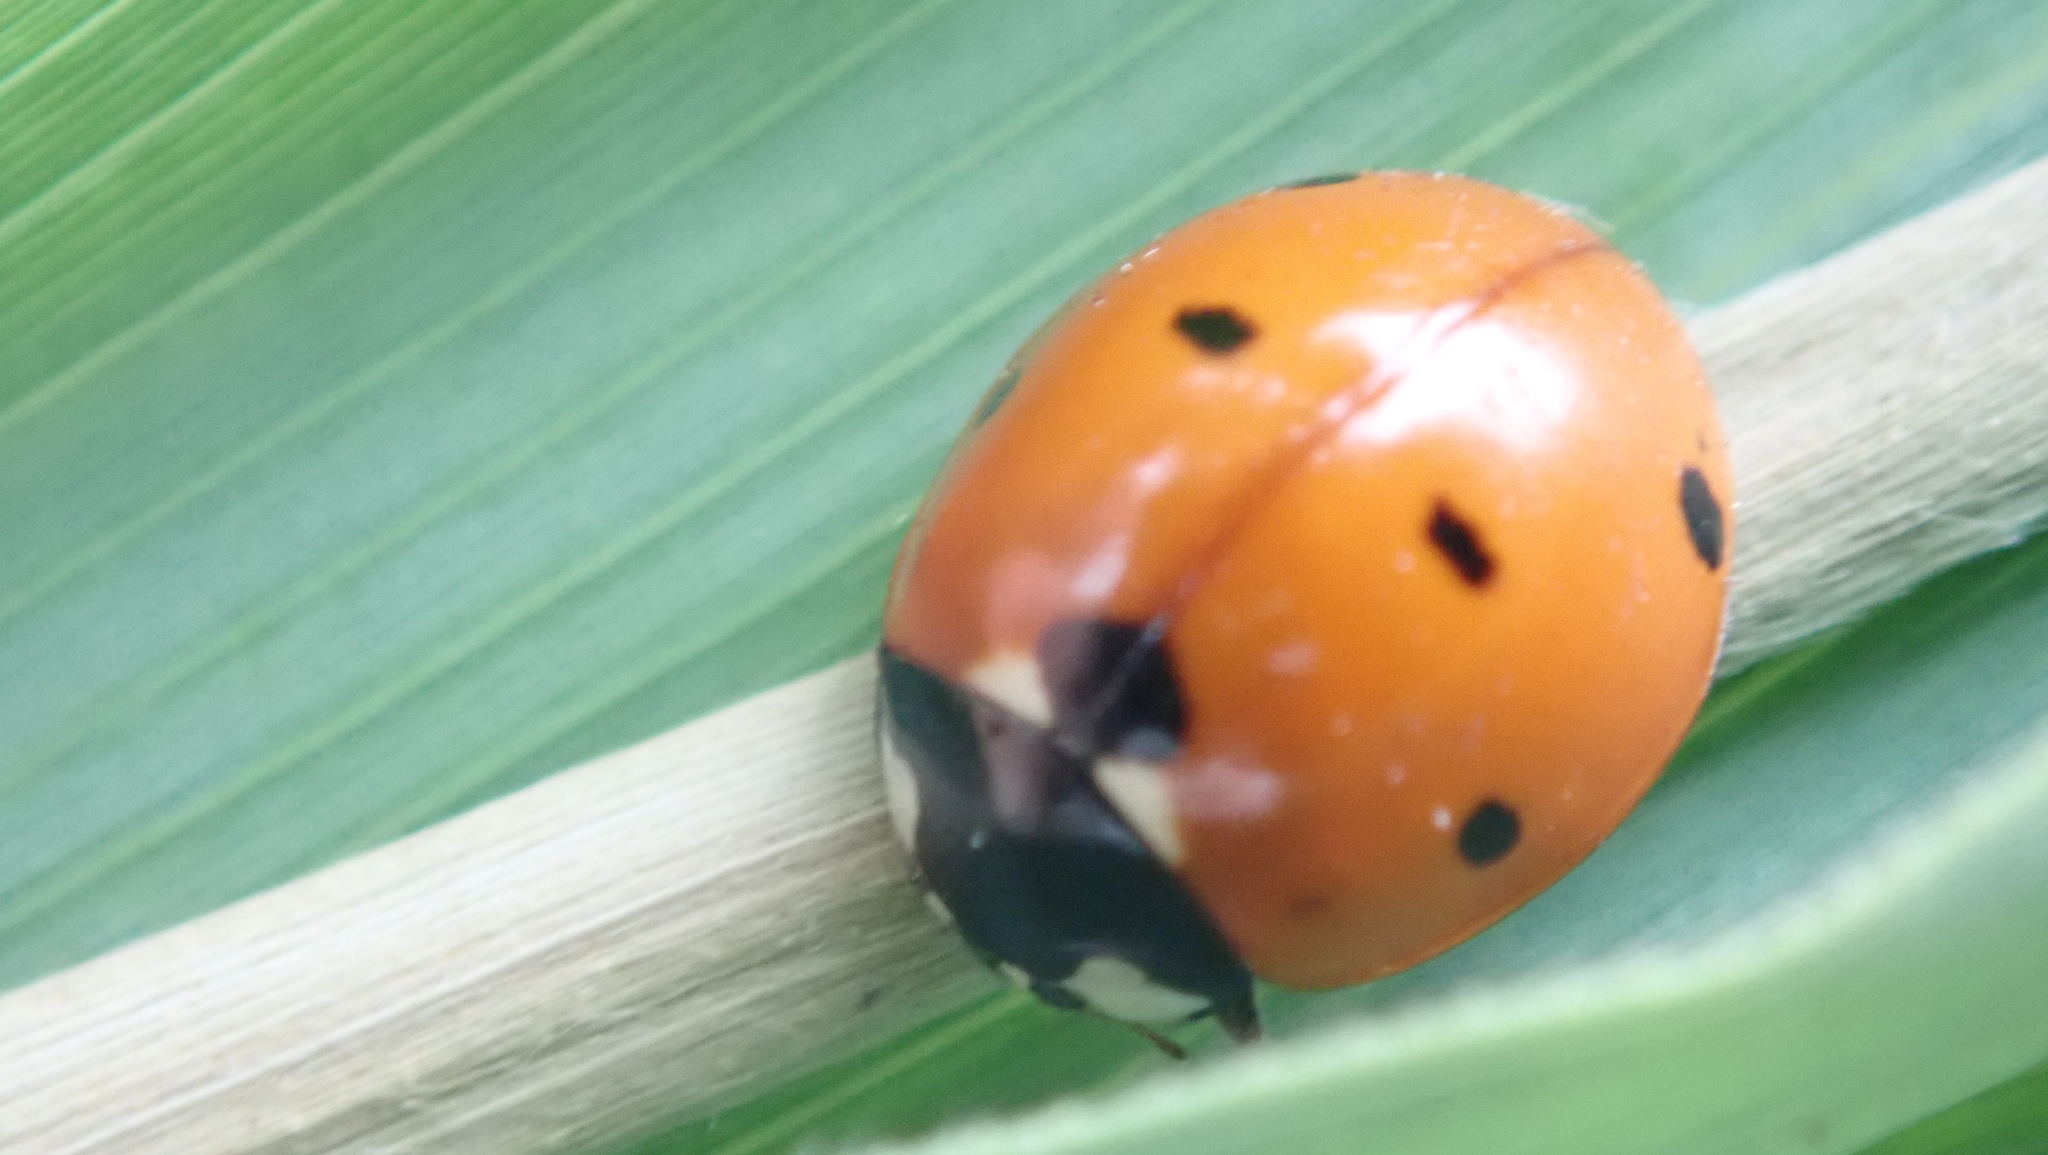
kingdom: Animalia
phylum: Arthropoda
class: Insecta
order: Coleoptera
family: Coccinellidae
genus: Coccinella
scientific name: Coccinella septempunctata
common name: Sevenspotted lady beetle
